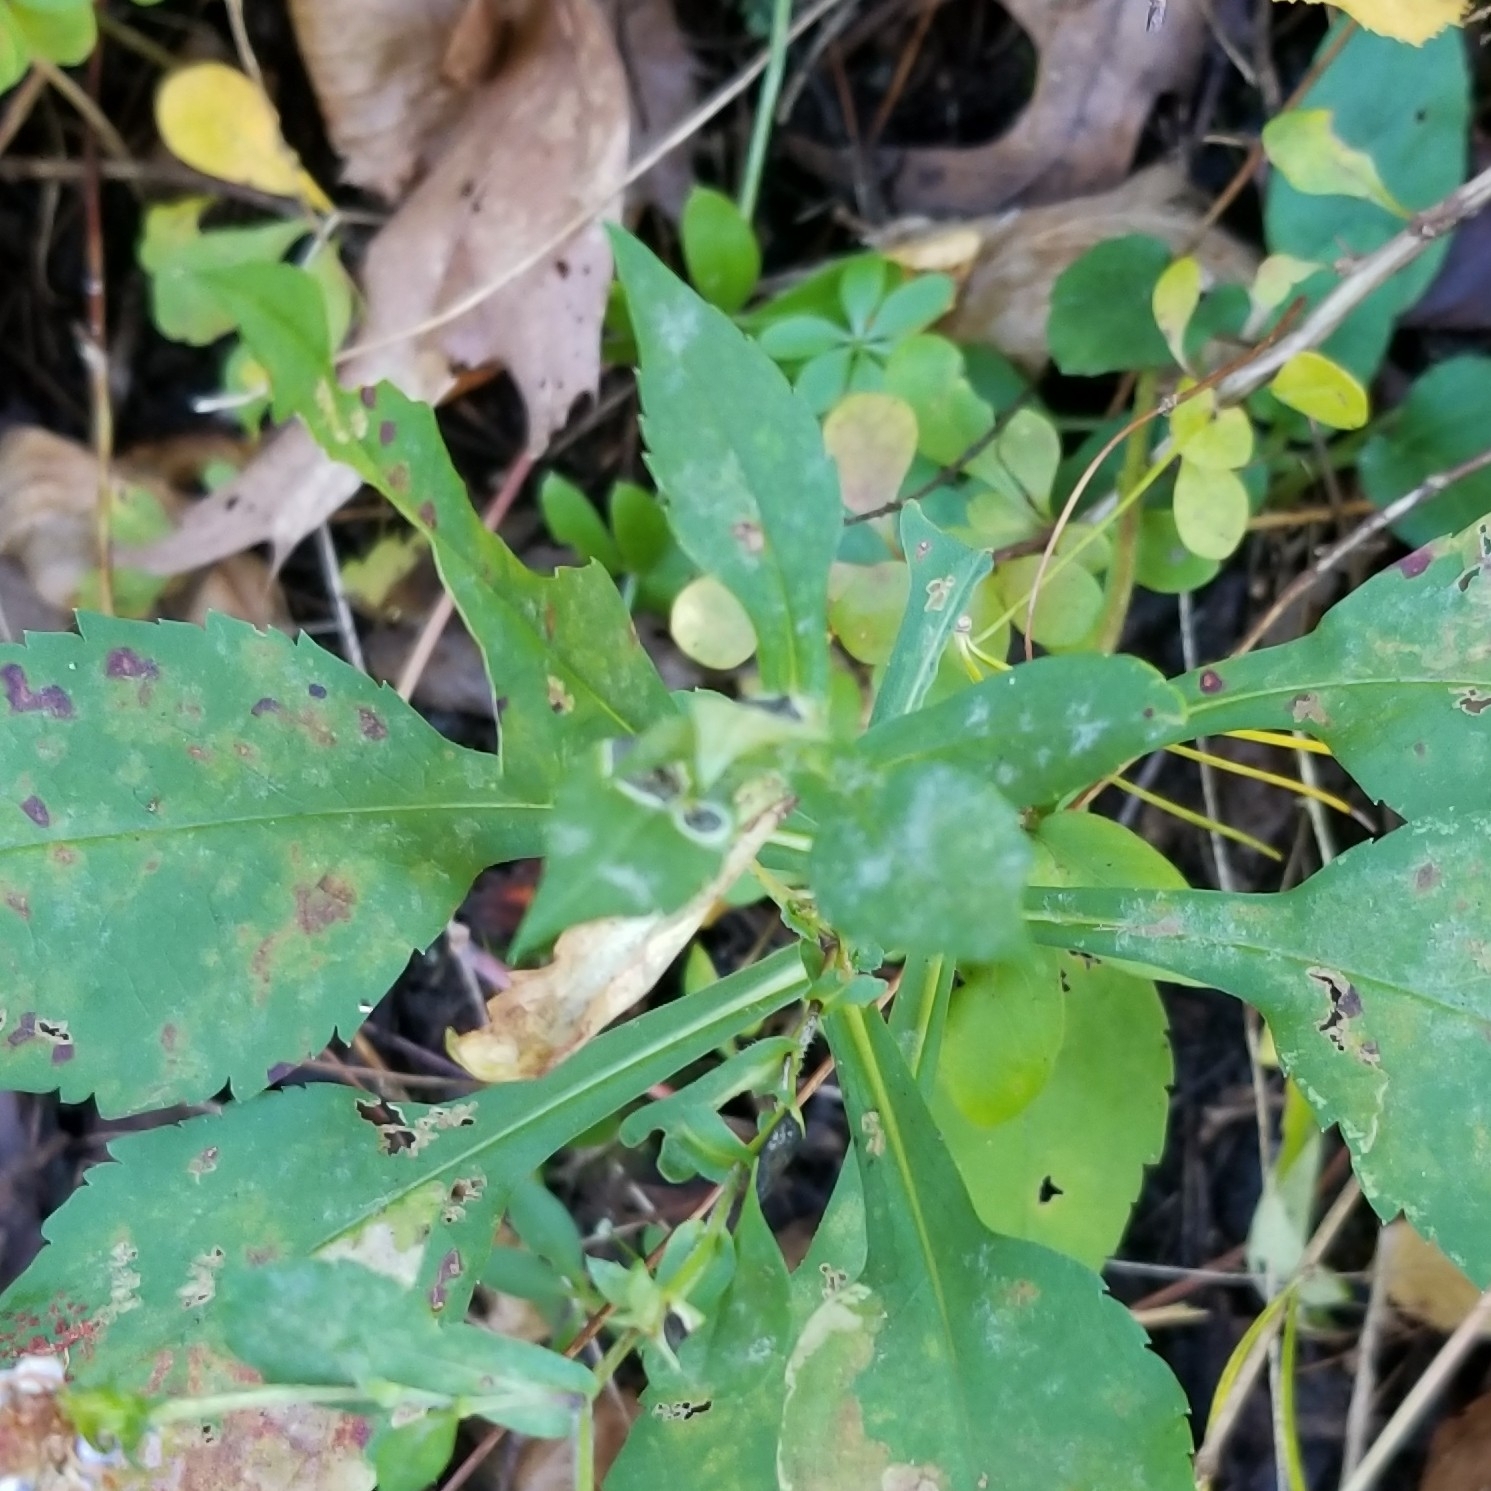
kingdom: Animalia
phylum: Arthropoda
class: Insecta
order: Diptera
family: Cecidomyiidae
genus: Asteromyia
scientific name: Asteromyia laeviana
